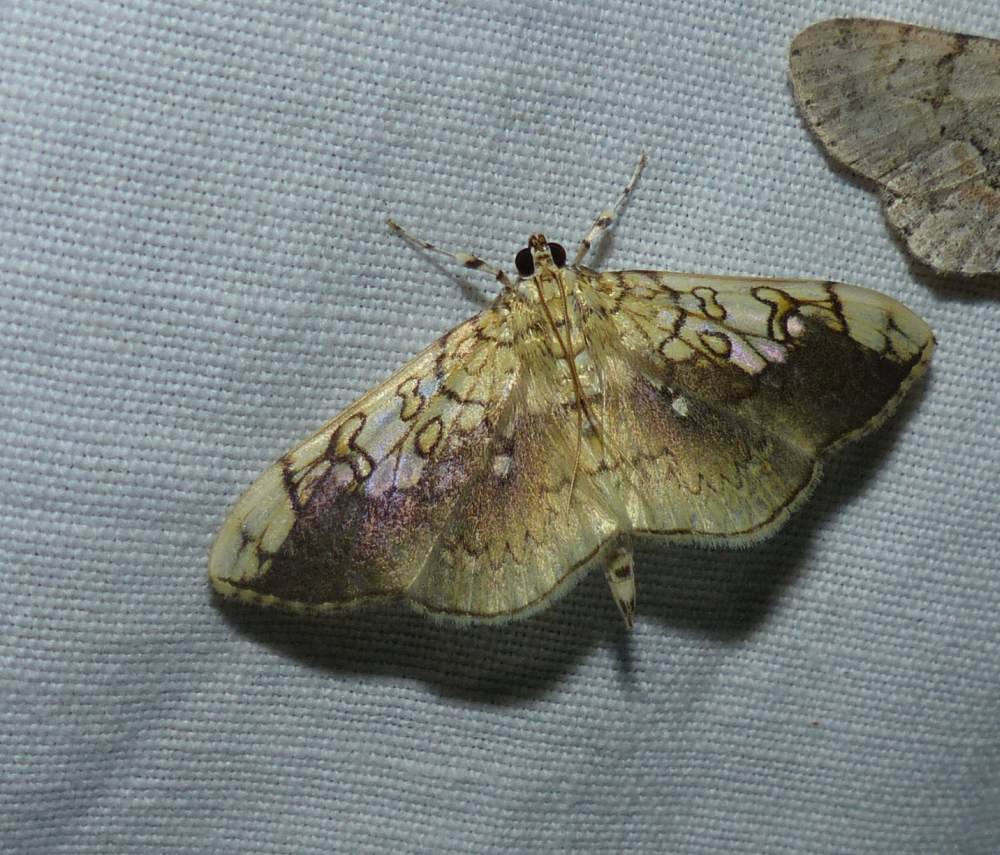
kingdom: Animalia
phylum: Arthropoda
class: Insecta
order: Lepidoptera
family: Crambidae
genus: Pantographa
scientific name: Pantographa limata
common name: Basswood leafroller moth
